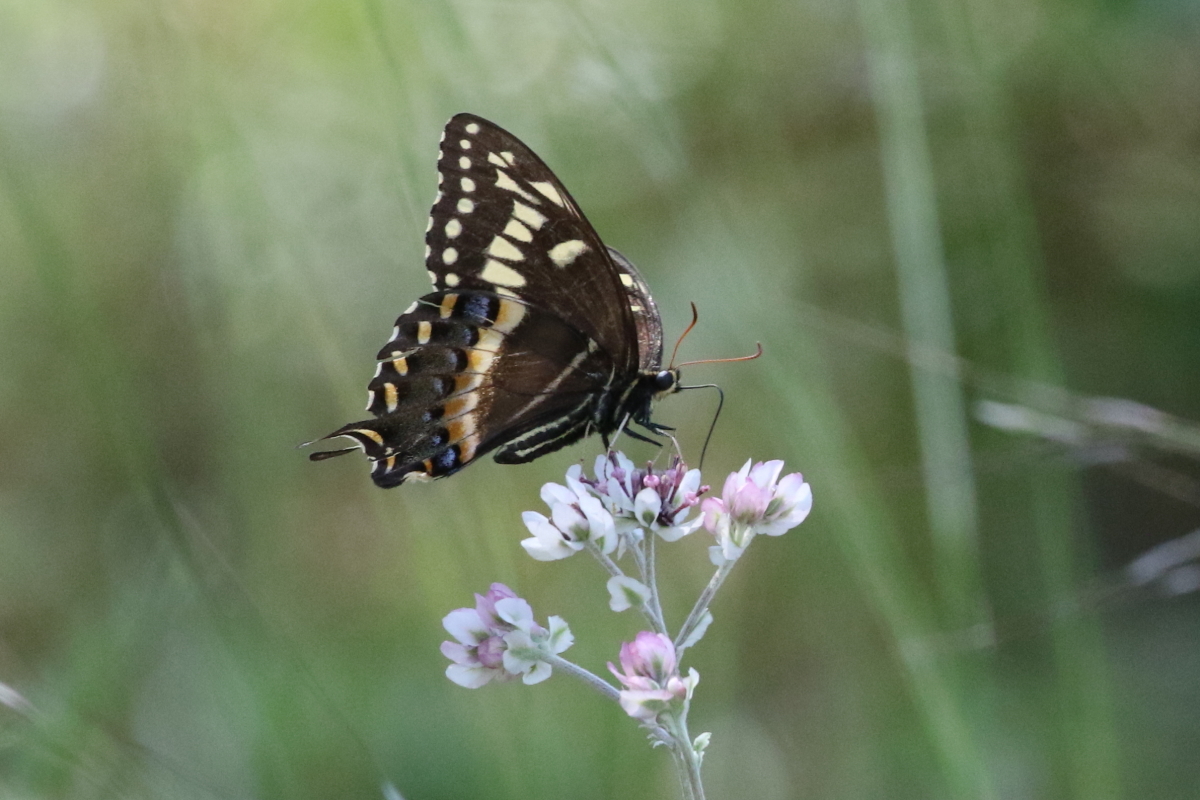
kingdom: Animalia
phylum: Arthropoda
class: Insecta
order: Lepidoptera
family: Papilionidae
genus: Papilio
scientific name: Papilio palamedes
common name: Palamedes swallowtail
